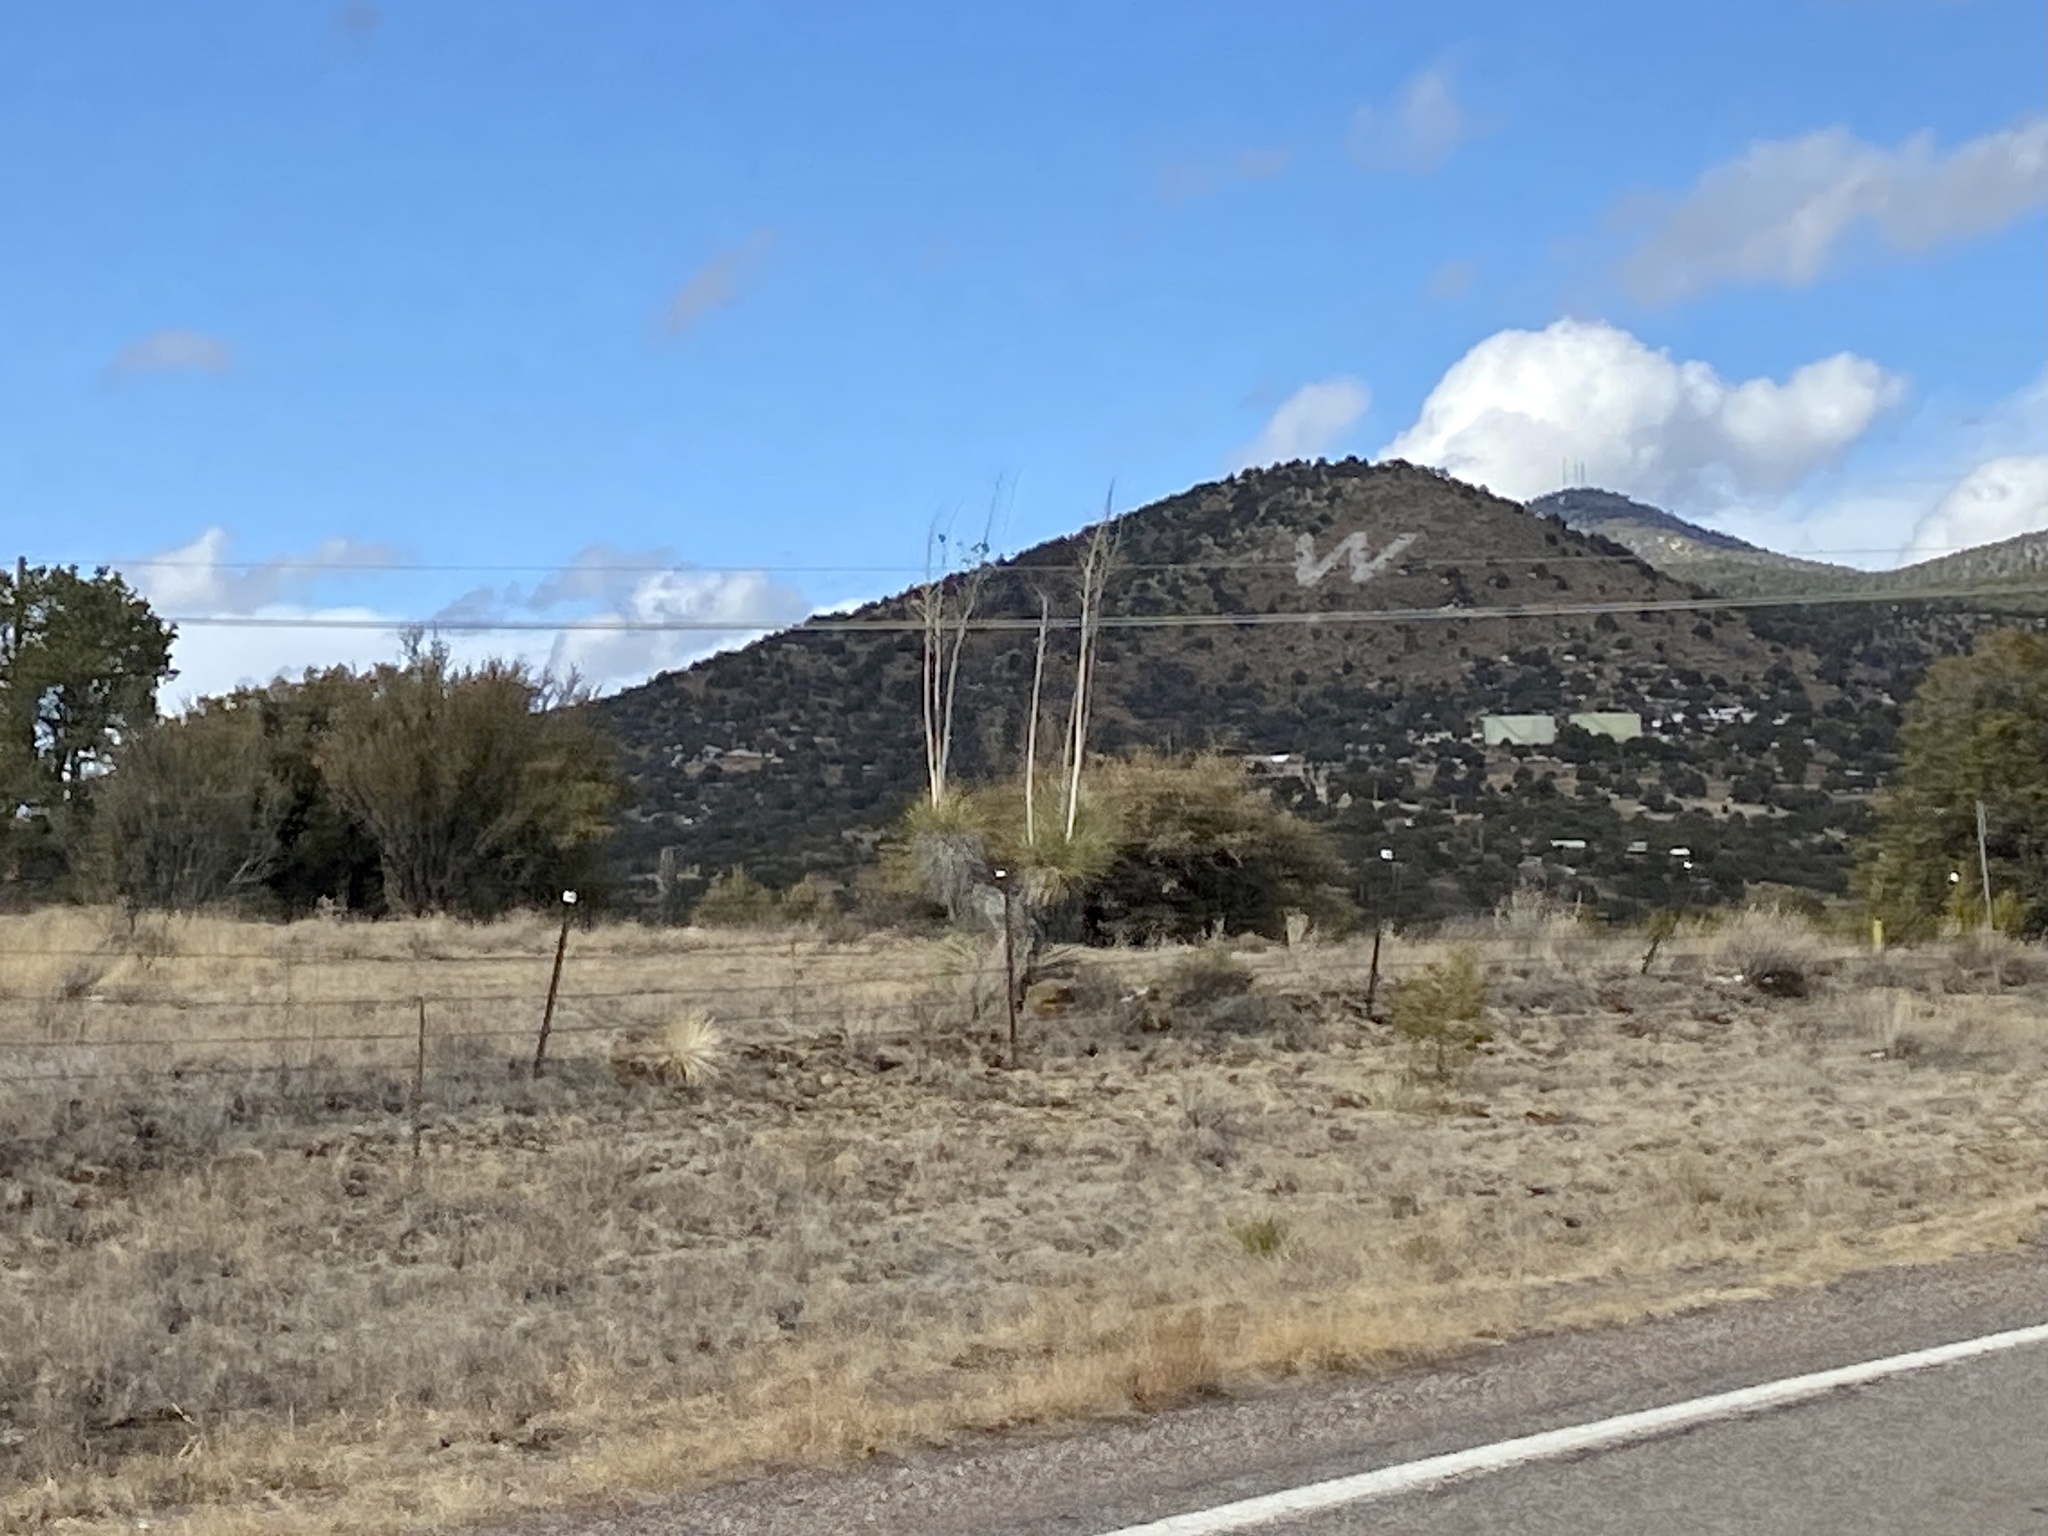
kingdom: Plantae
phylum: Tracheophyta
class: Liliopsida
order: Asparagales
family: Asparagaceae
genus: Yucca
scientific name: Yucca elata
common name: Palmella
